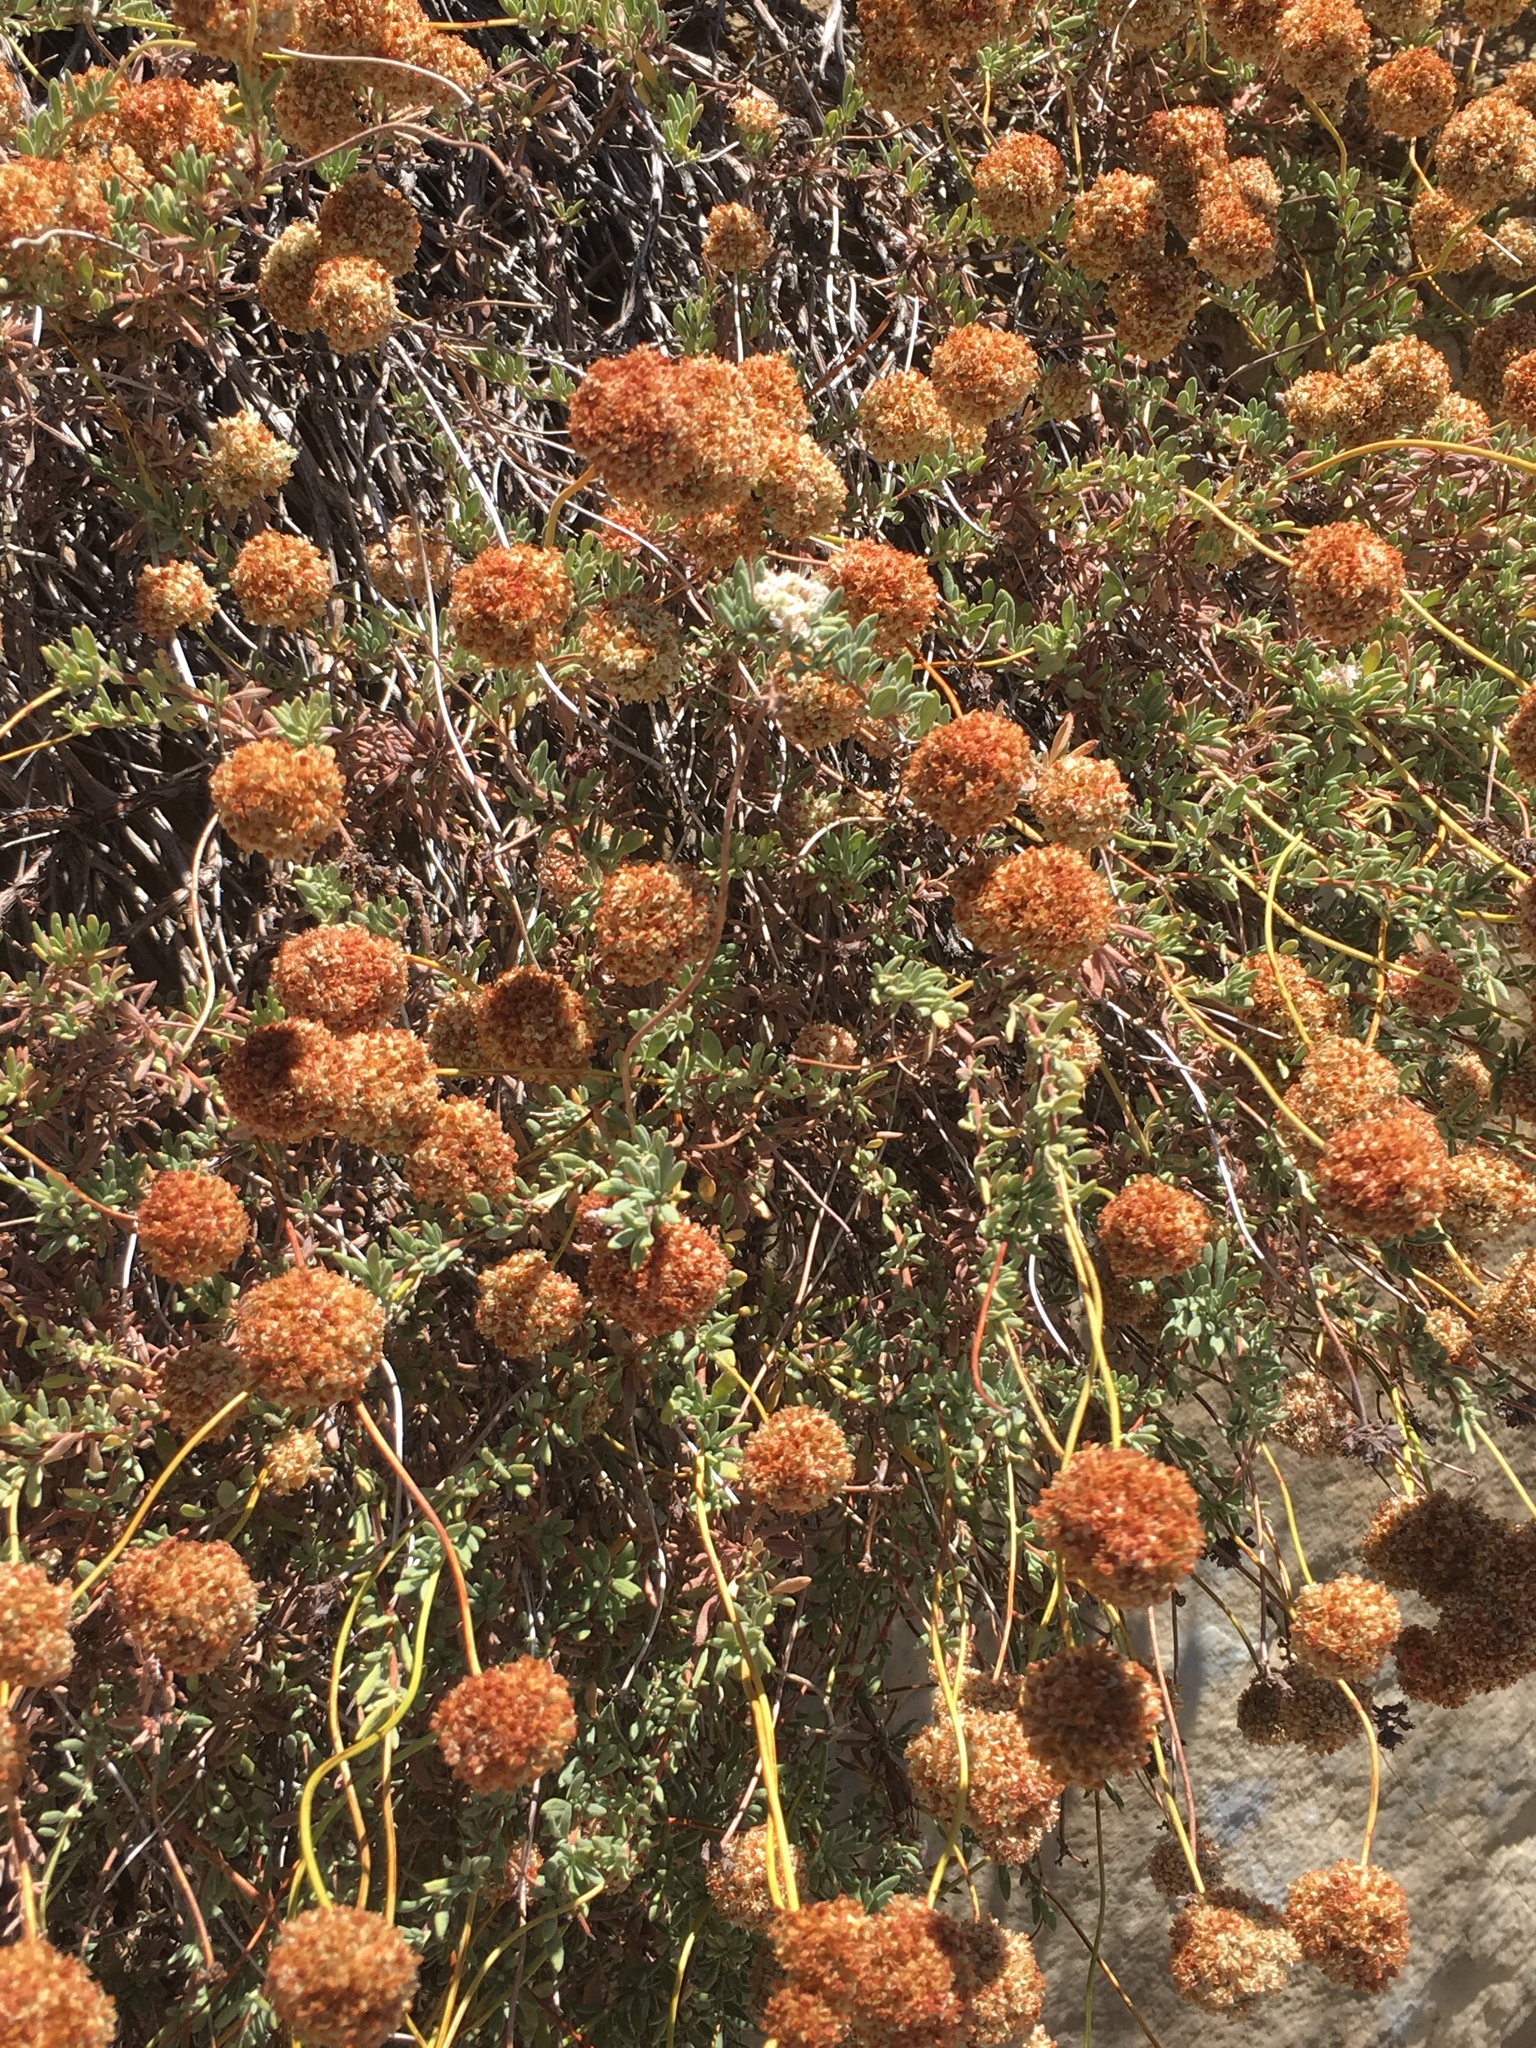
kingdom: Plantae
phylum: Tracheophyta
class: Magnoliopsida
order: Caryophyllales
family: Polygonaceae
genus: Eriogonum
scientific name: Eriogonum fasciculatum
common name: California wild buckwheat
